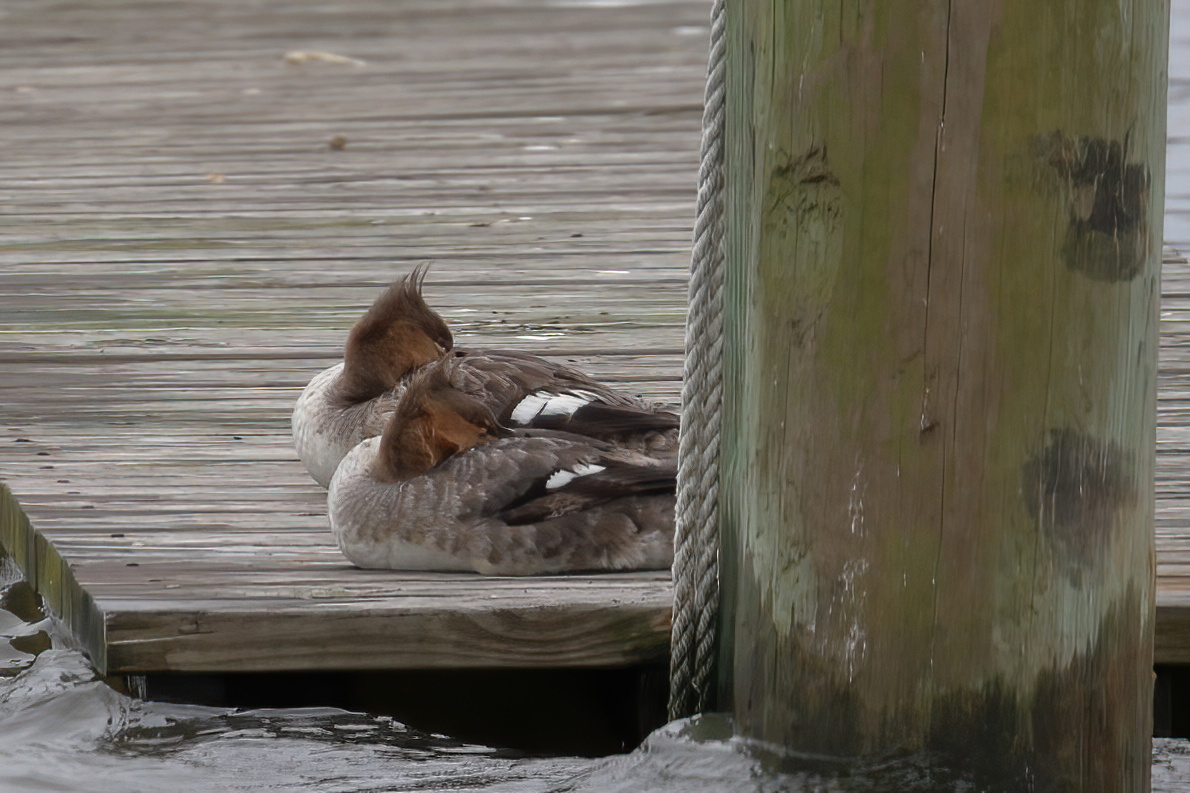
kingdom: Animalia
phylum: Chordata
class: Aves
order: Anseriformes
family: Anatidae
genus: Mergus
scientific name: Mergus merganser
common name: Common merganser
